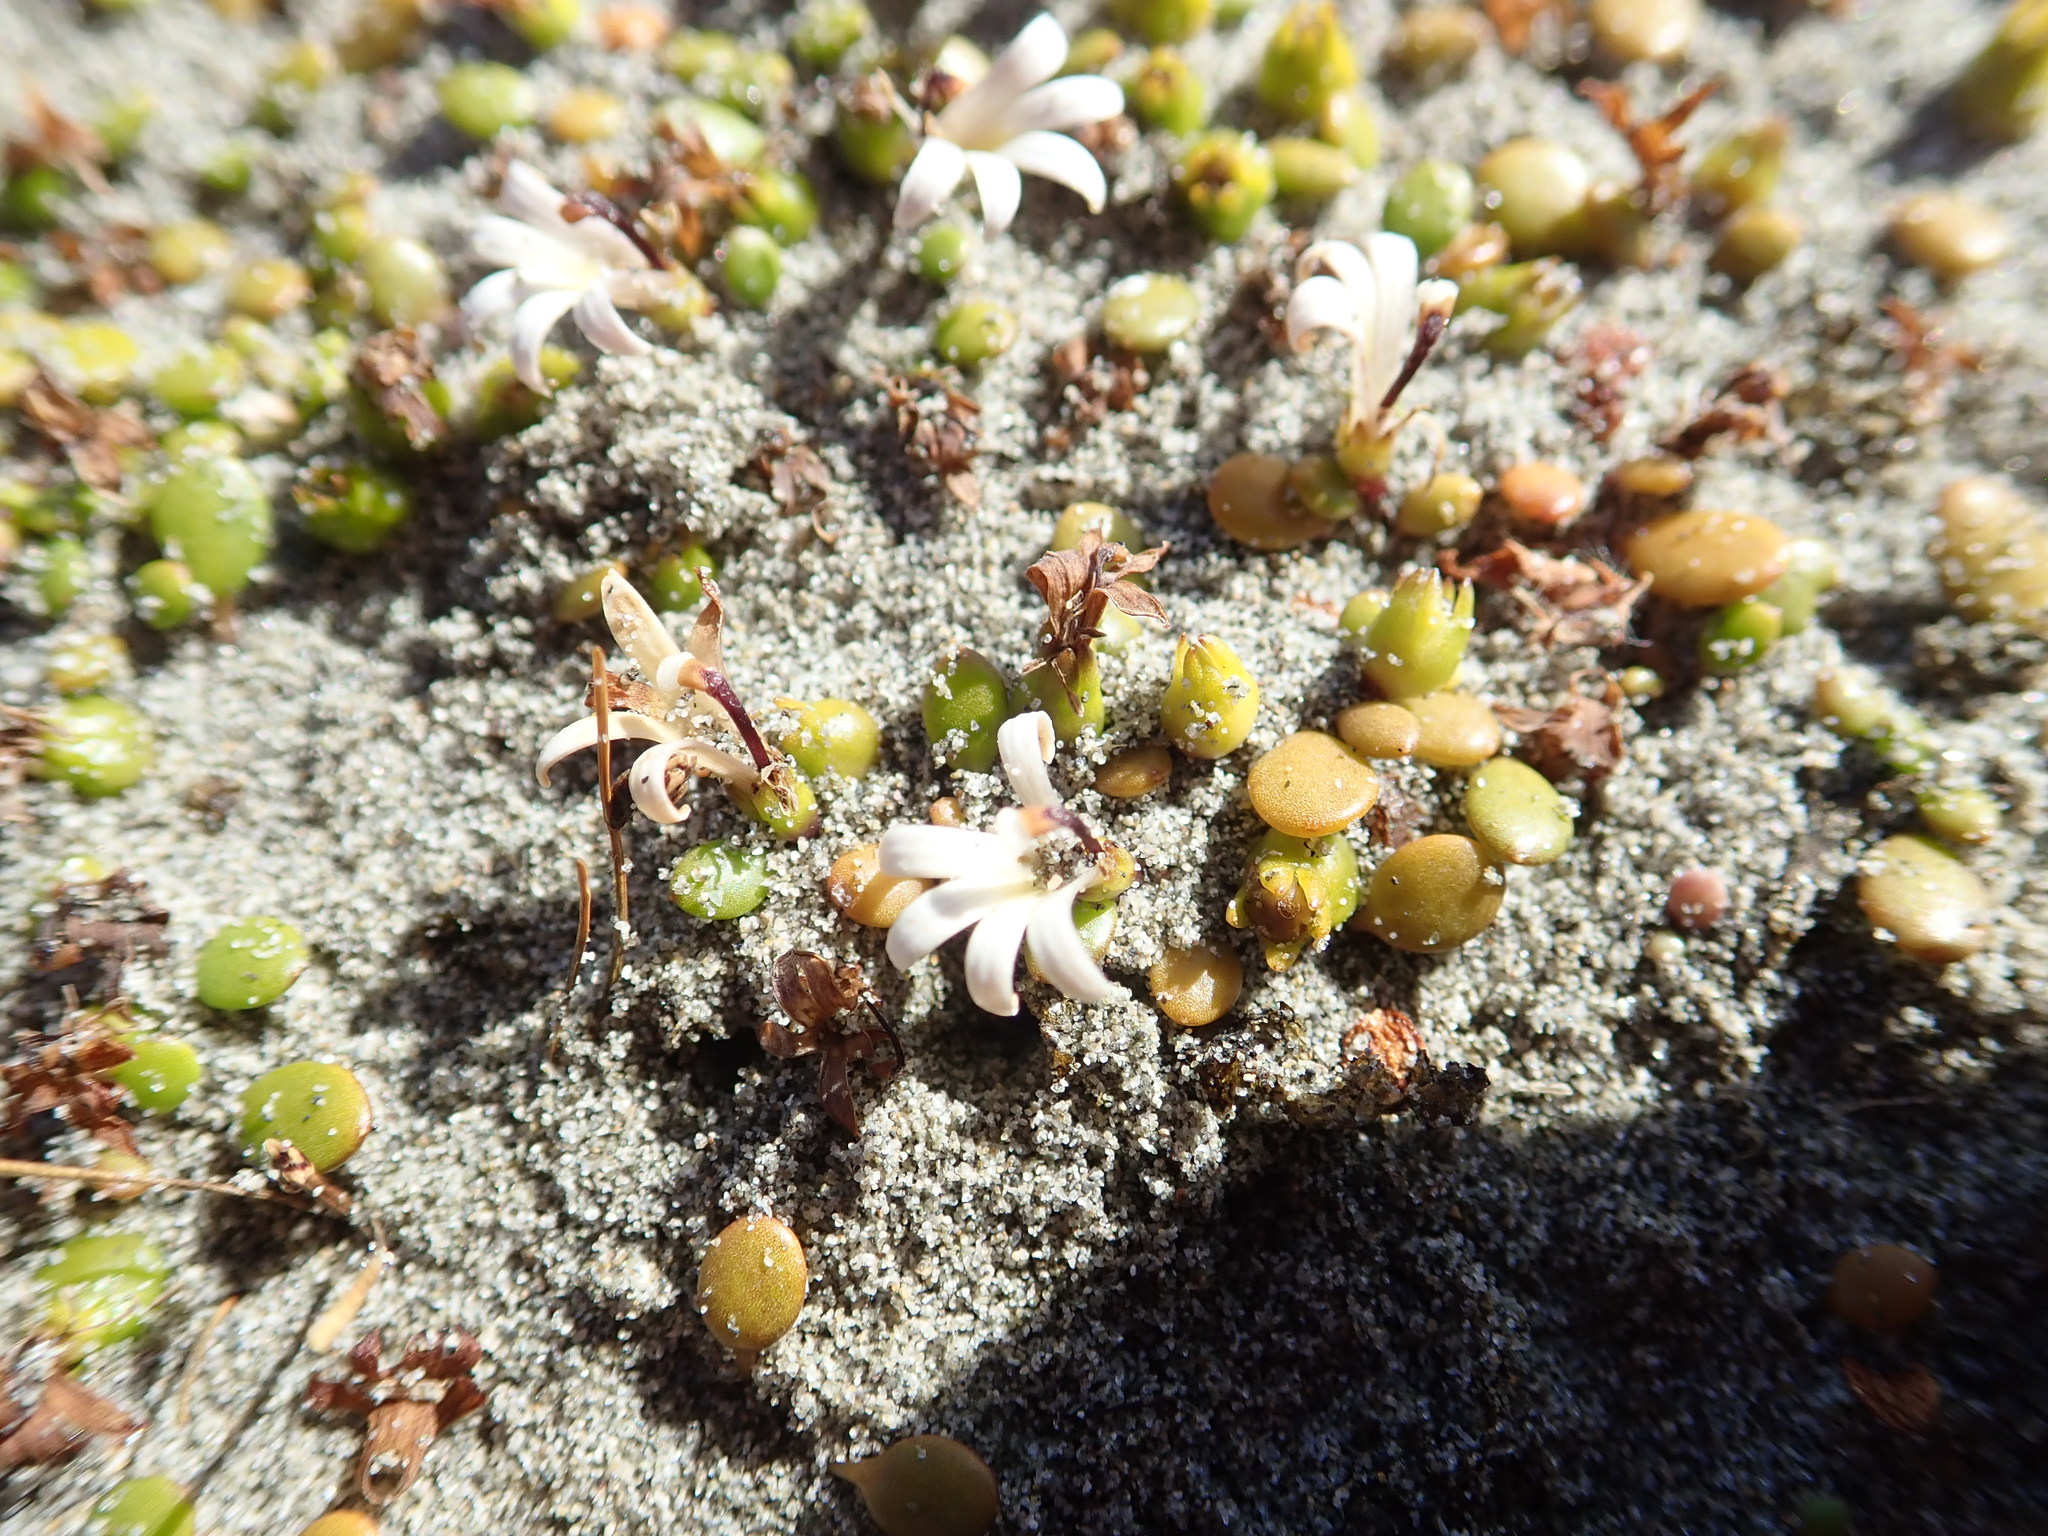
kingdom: Plantae
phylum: Tracheophyta
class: Magnoliopsida
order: Asterales
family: Goodeniaceae
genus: Goodenia
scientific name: Goodenia heenanii
